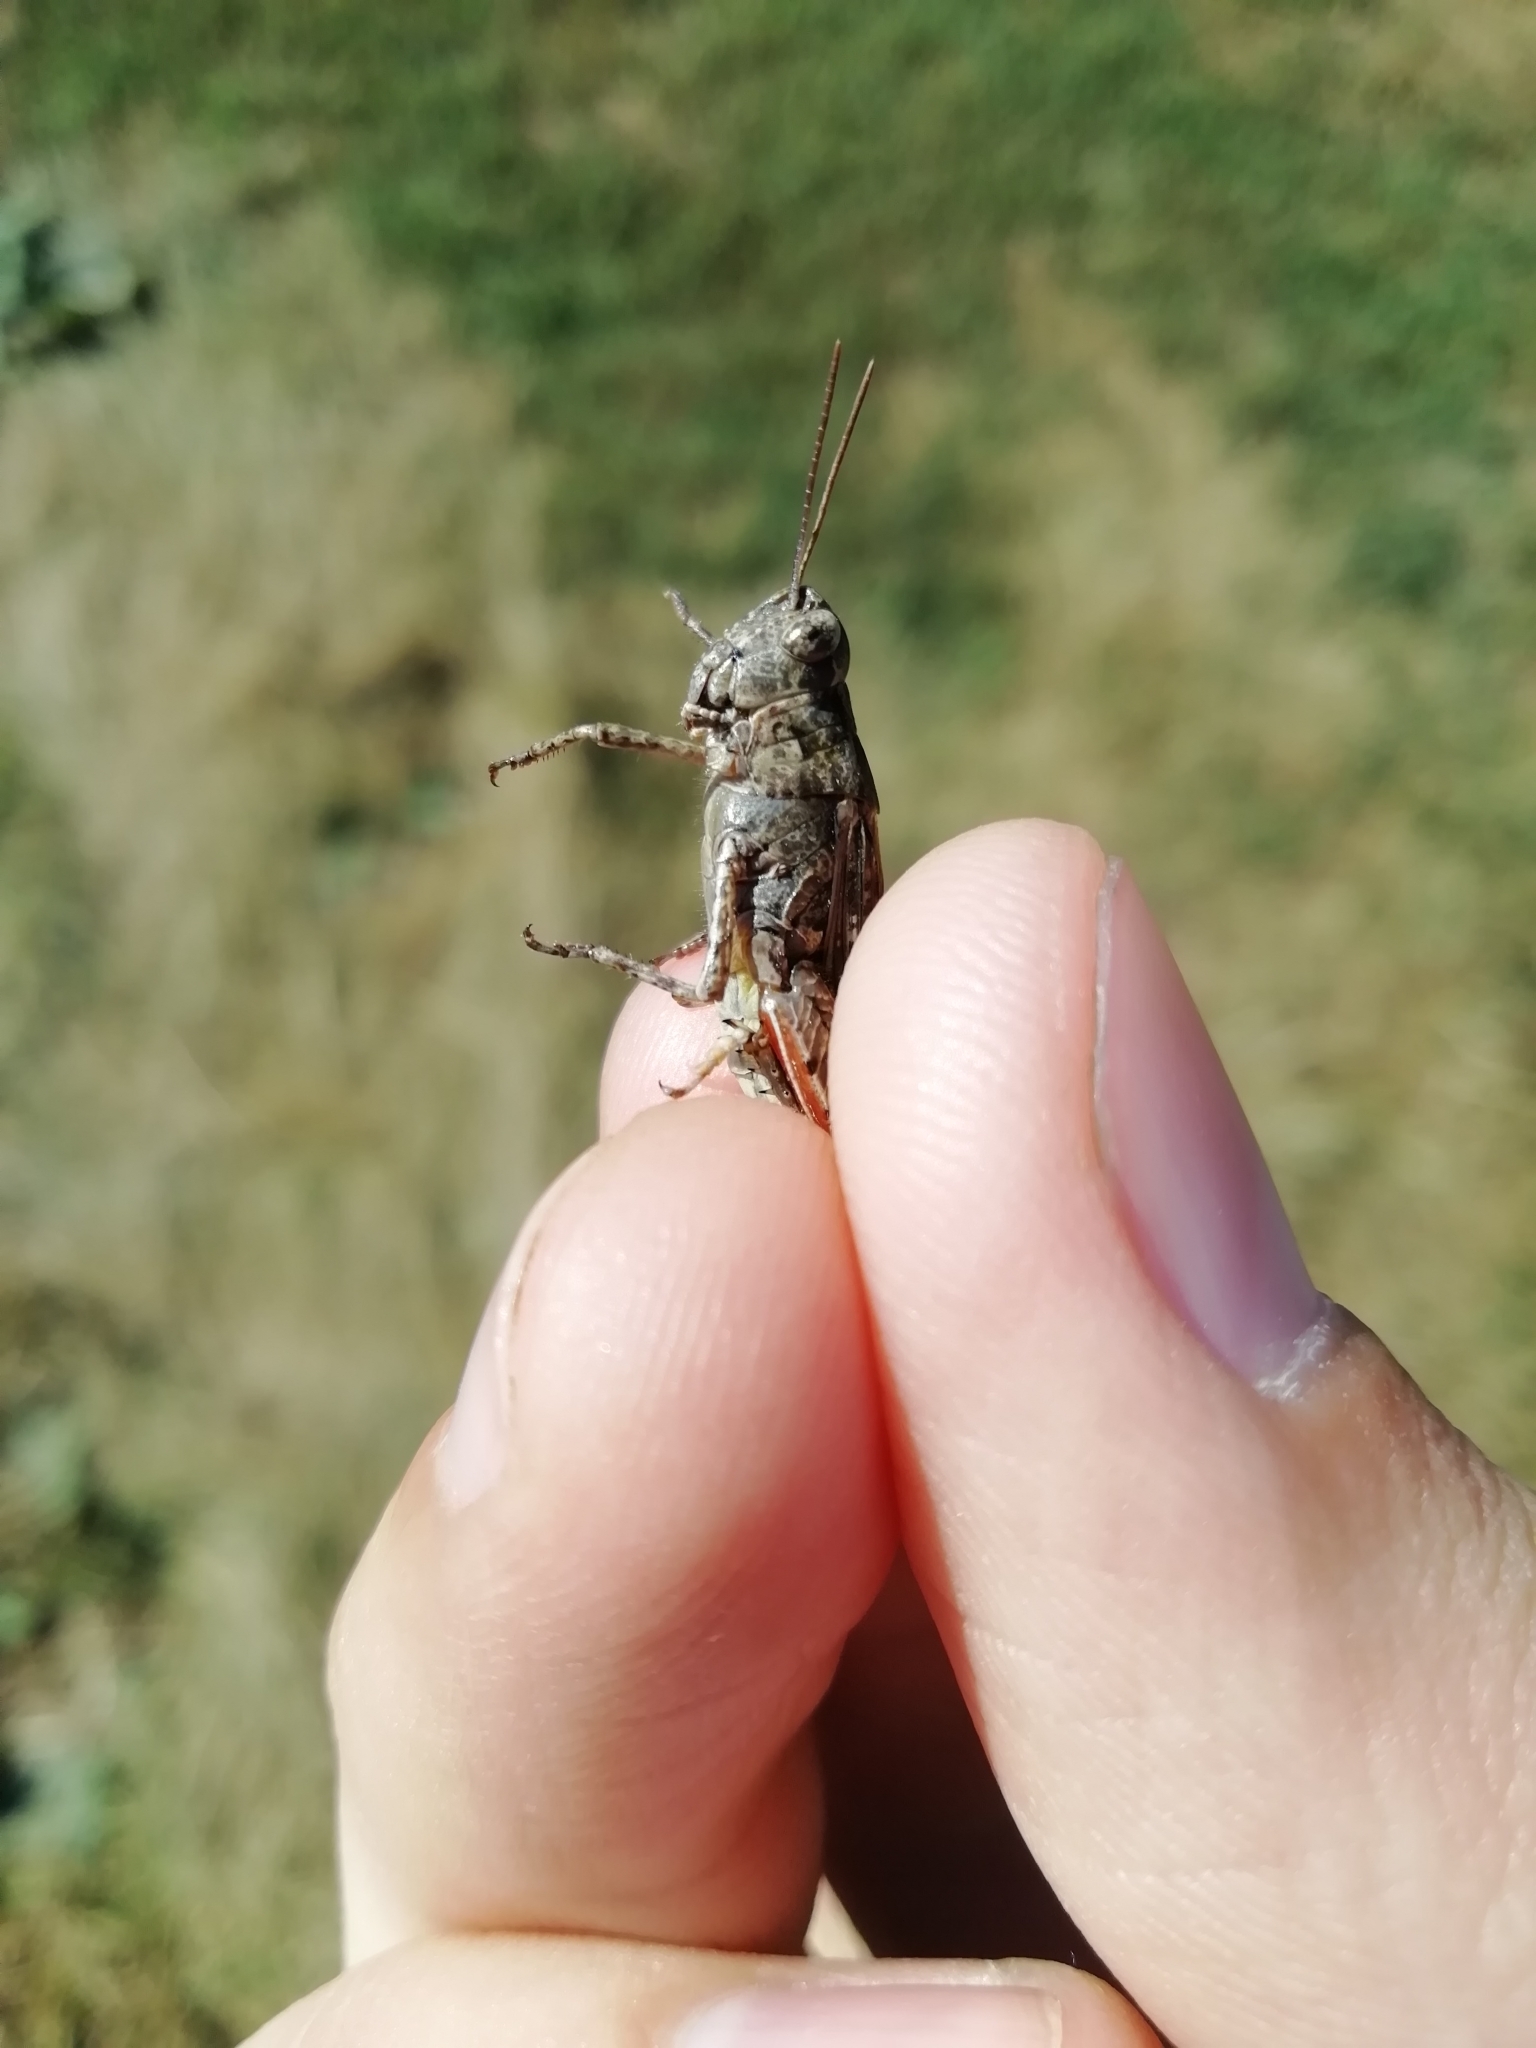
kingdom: Animalia
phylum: Arthropoda
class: Insecta
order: Orthoptera
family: Acrididae
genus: Epacromius
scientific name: Epacromius pulverulentus
